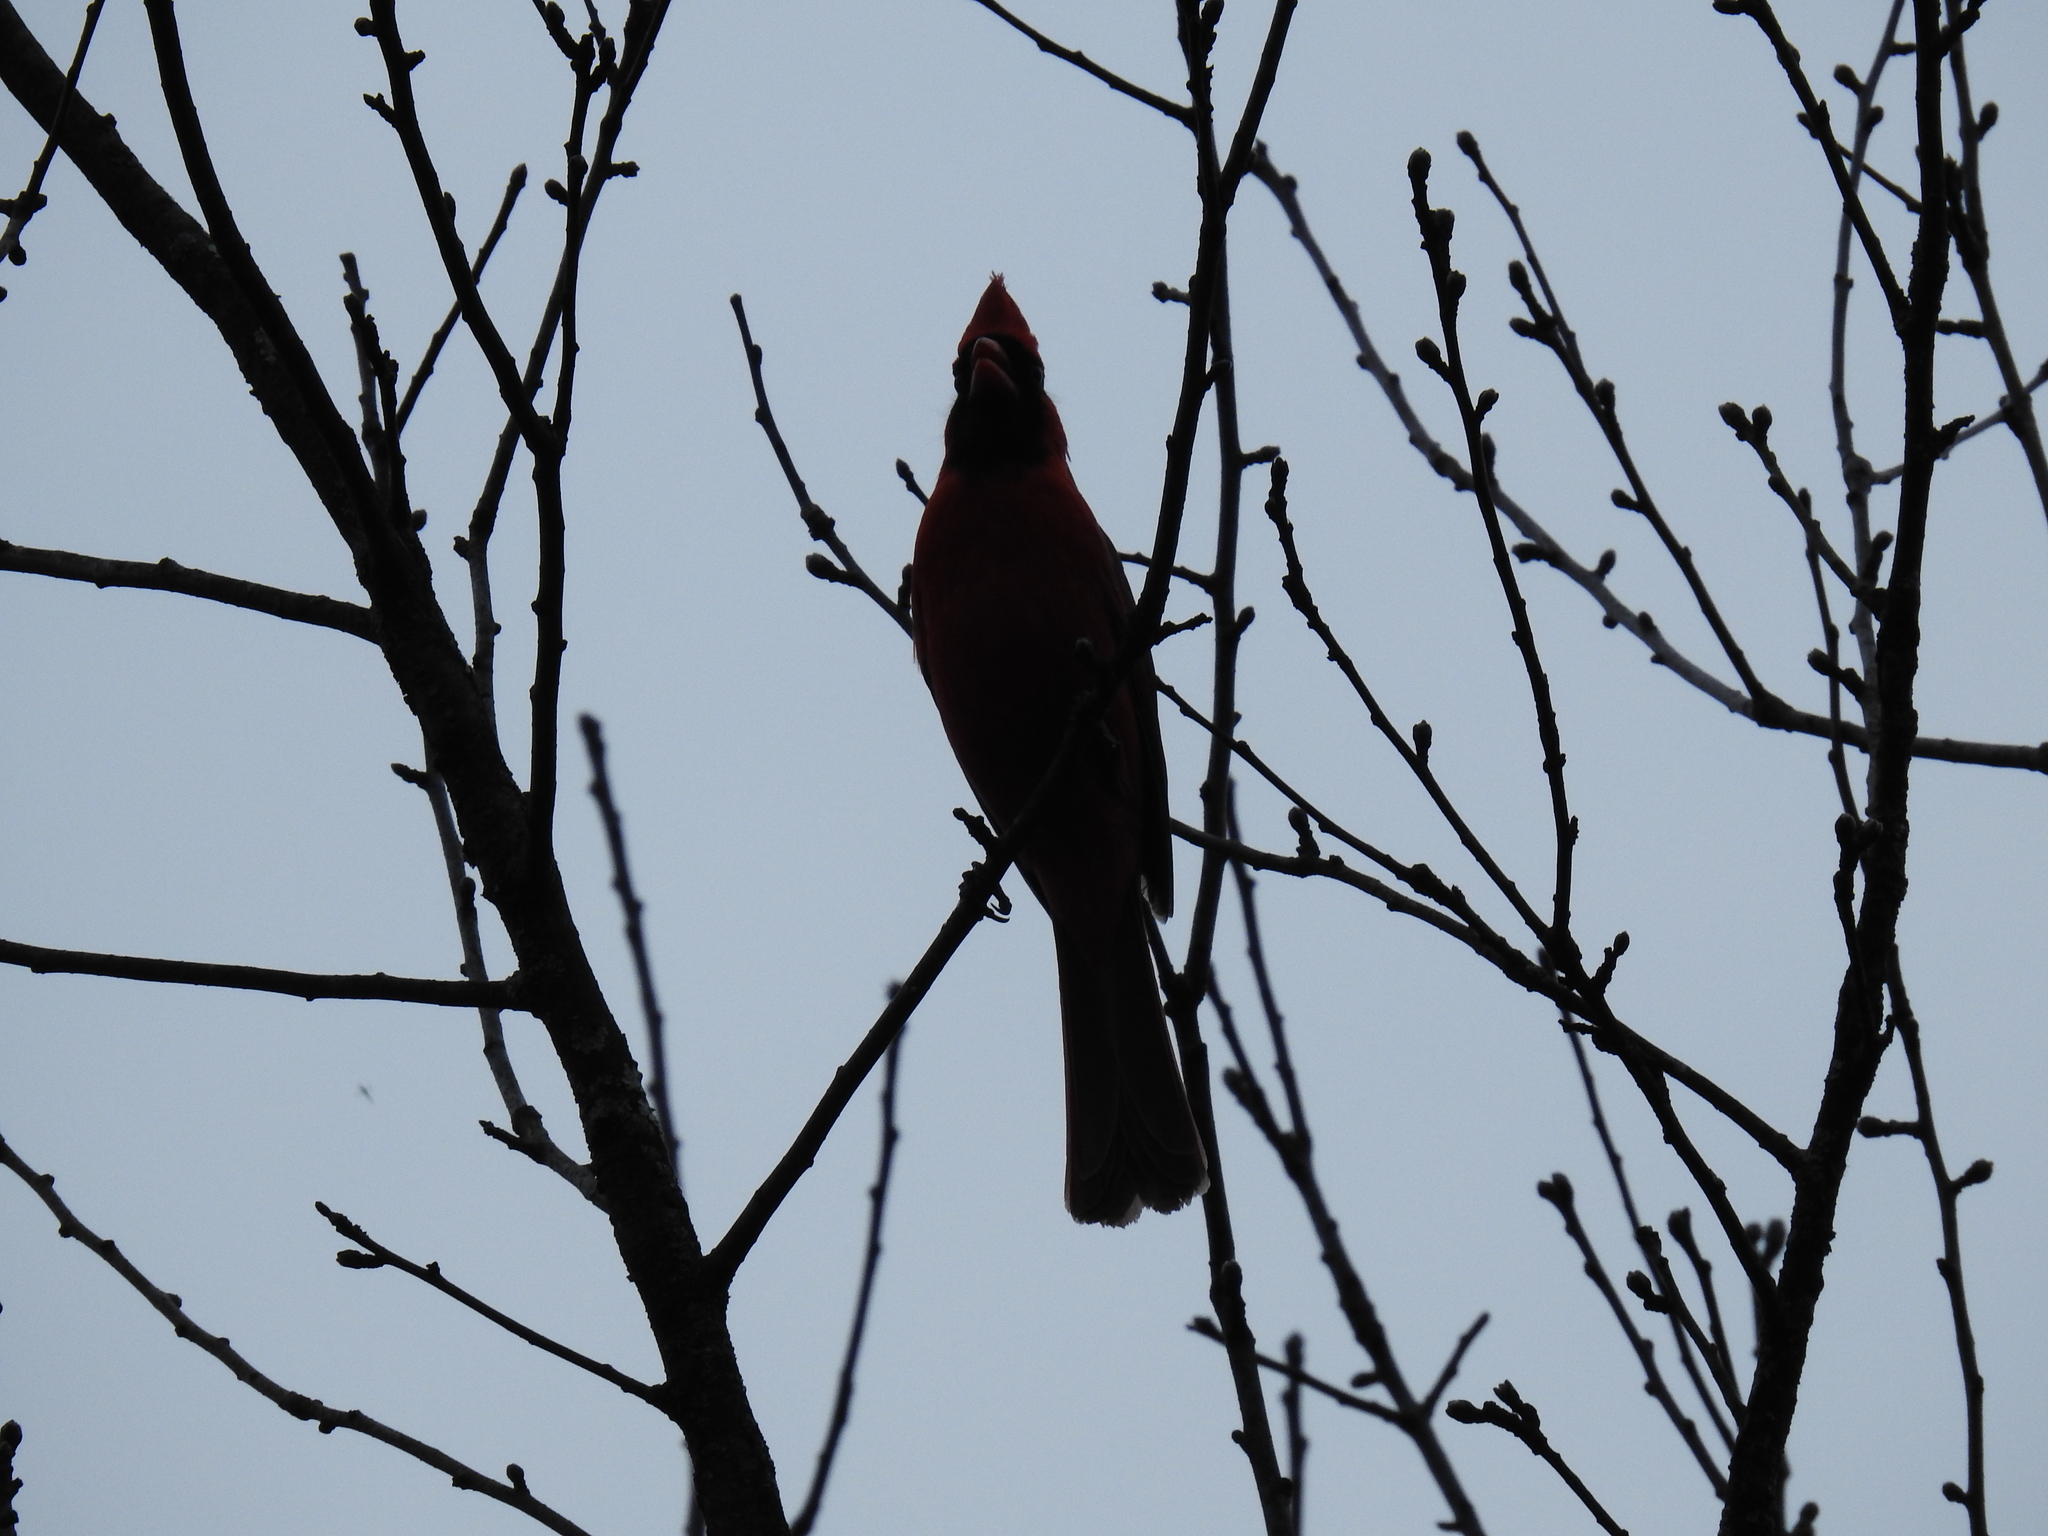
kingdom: Animalia
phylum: Chordata
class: Aves
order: Passeriformes
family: Cardinalidae
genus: Cardinalis
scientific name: Cardinalis cardinalis
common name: Northern cardinal
